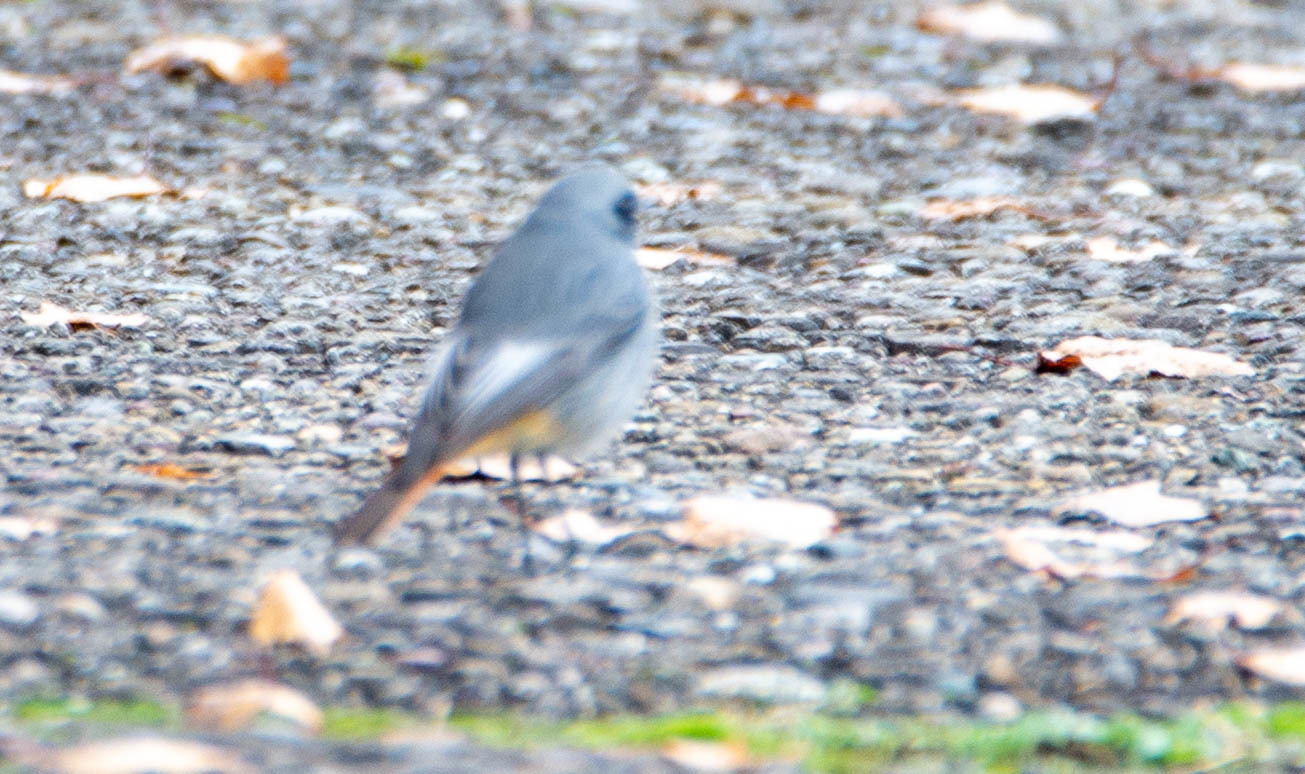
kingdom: Animalia
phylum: Chordata
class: Aves
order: Passeriformes
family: Muscicapidae
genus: Phoenicurus
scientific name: Phoenicurus ochruros
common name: Black redstart
